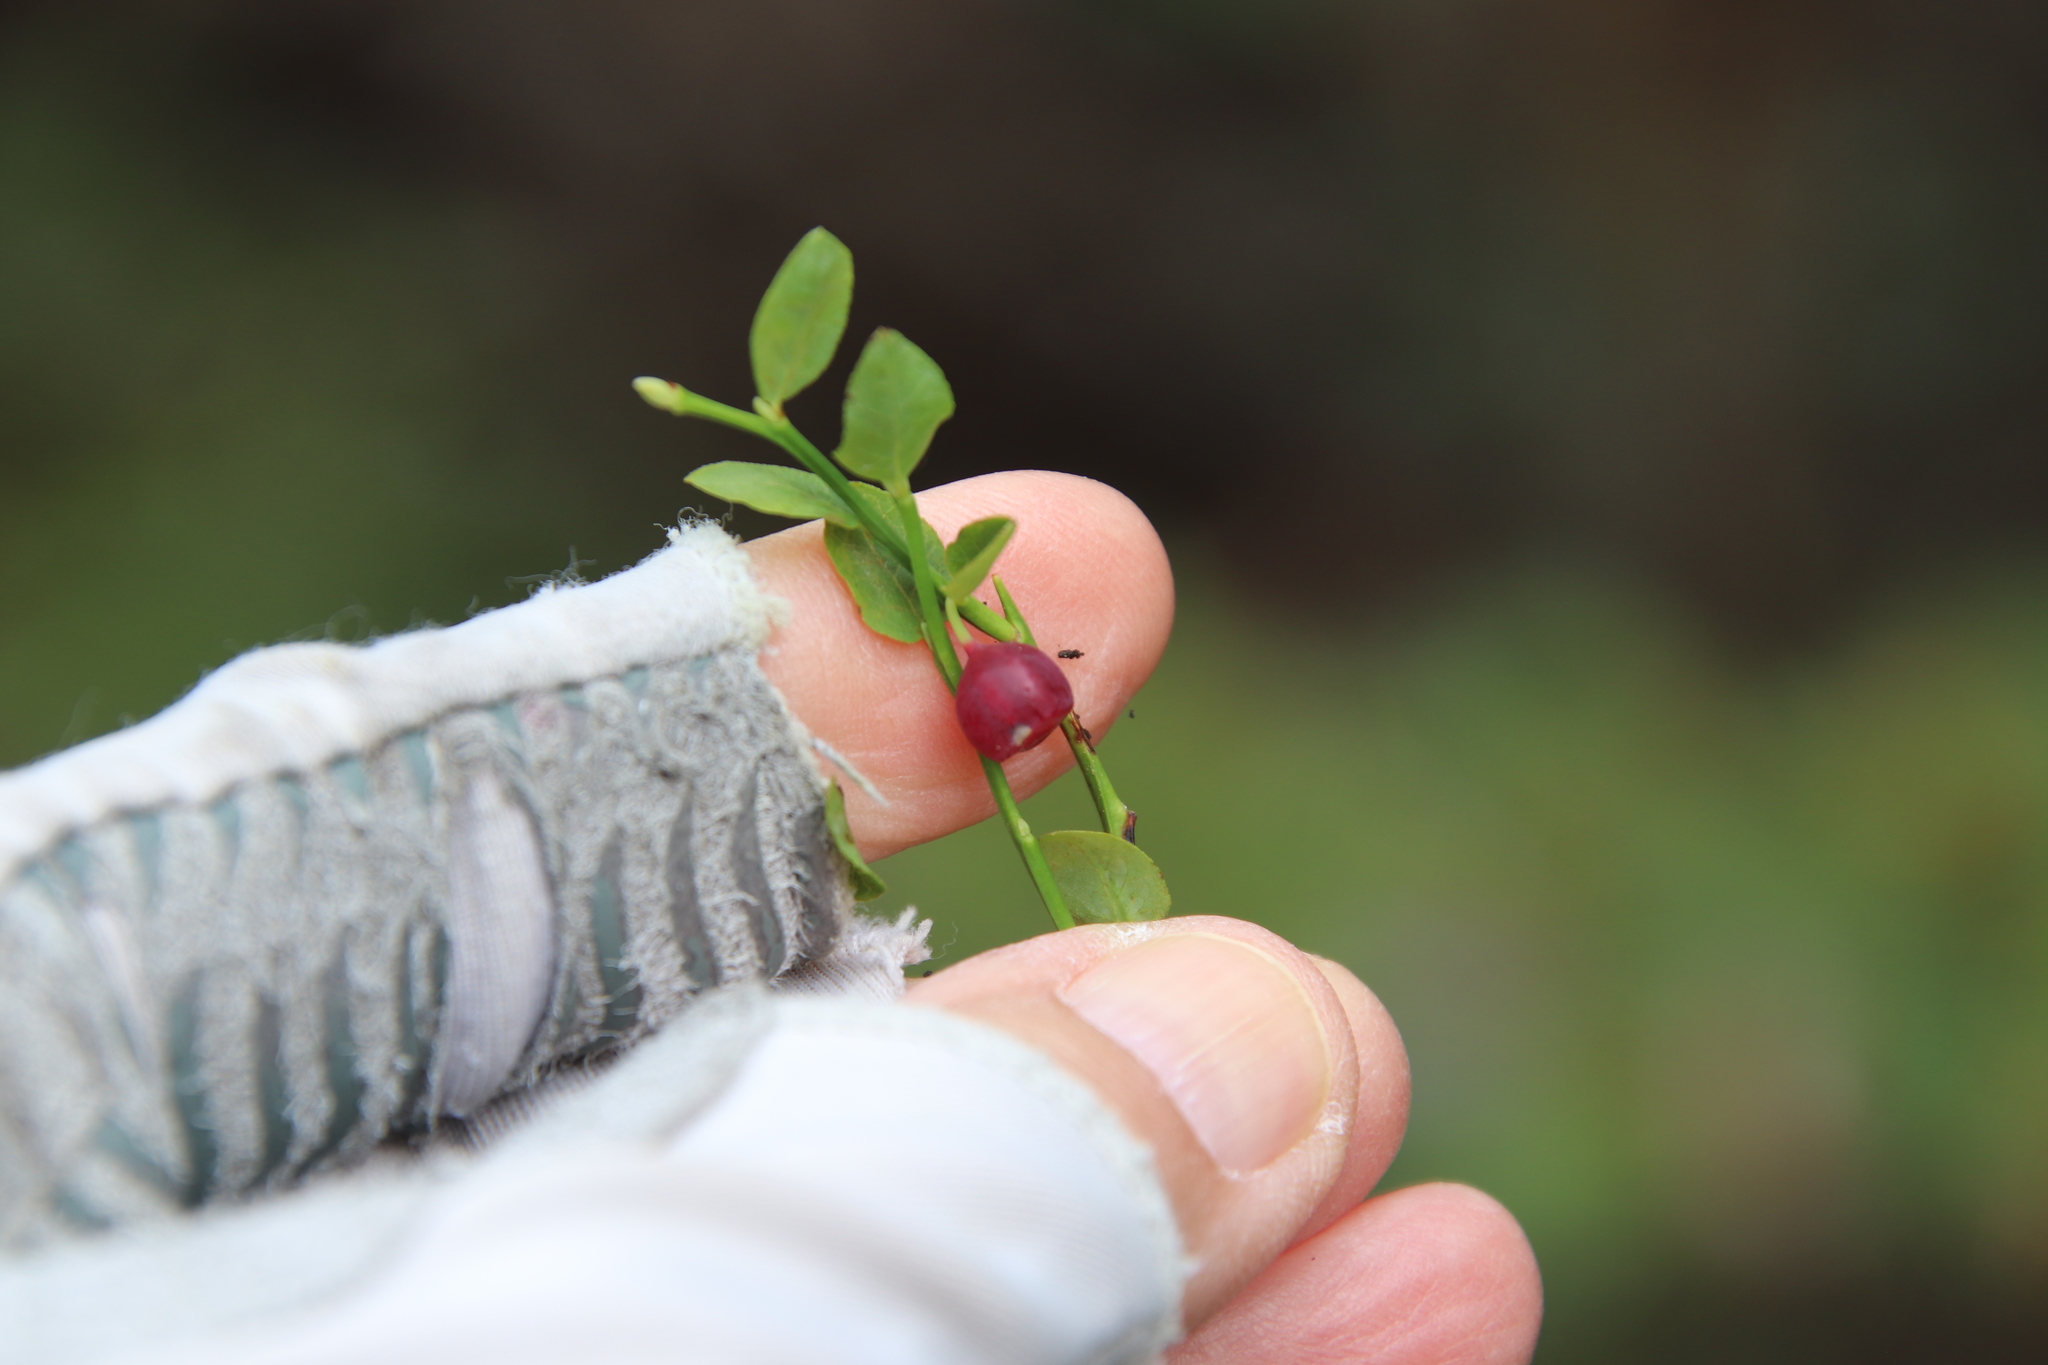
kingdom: Plantae
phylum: Tracheophyta
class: Magnoliopsida
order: Ericales
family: Ericaceae
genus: Vaccinium
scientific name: Vaccinium scoparium
